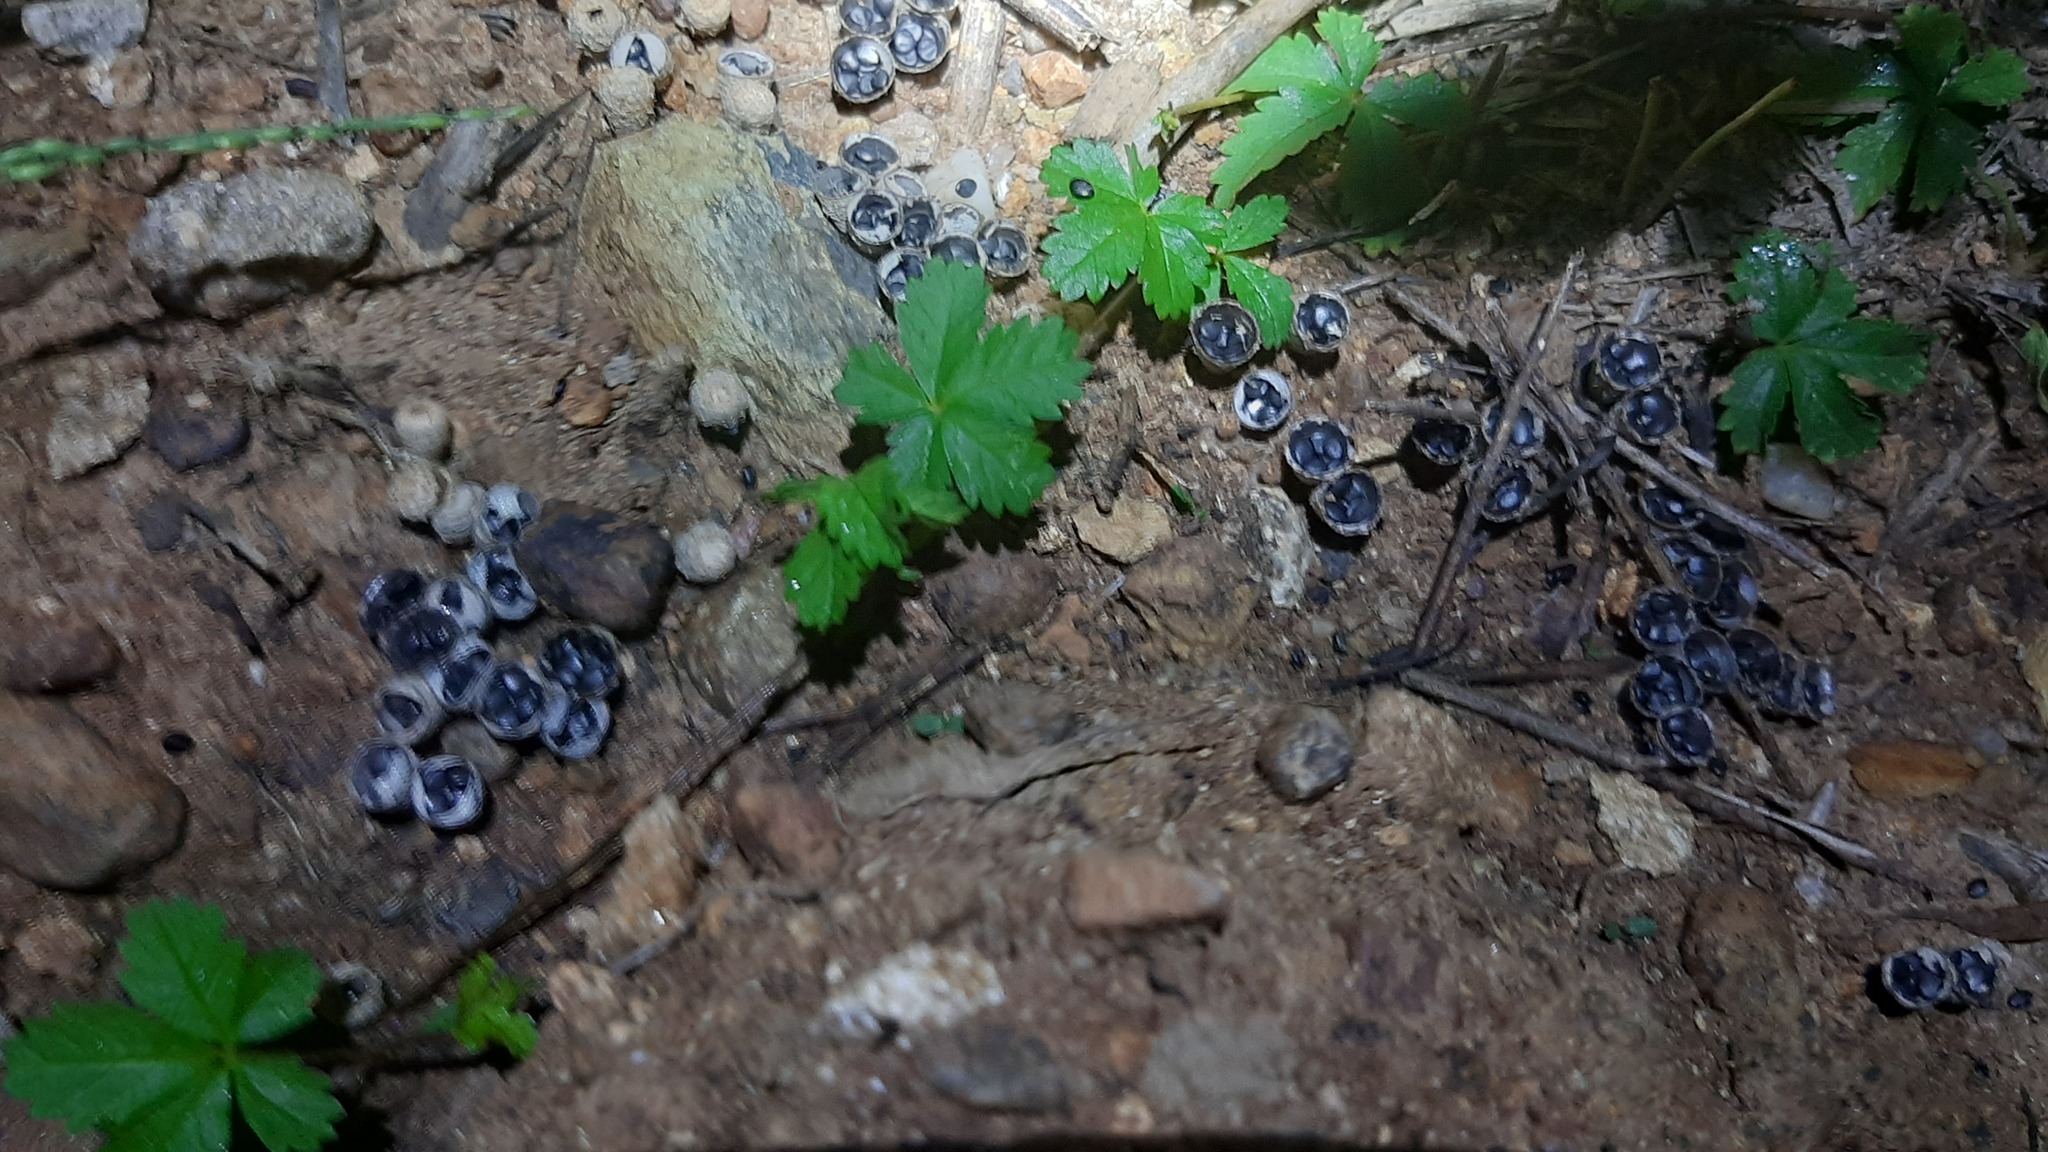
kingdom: Plantae
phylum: Tracheophyta
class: Magnoliopsida
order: Rosales
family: Rosaceae
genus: Potentilla
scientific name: Potentilla reptans
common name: Creeping cinquefoil
